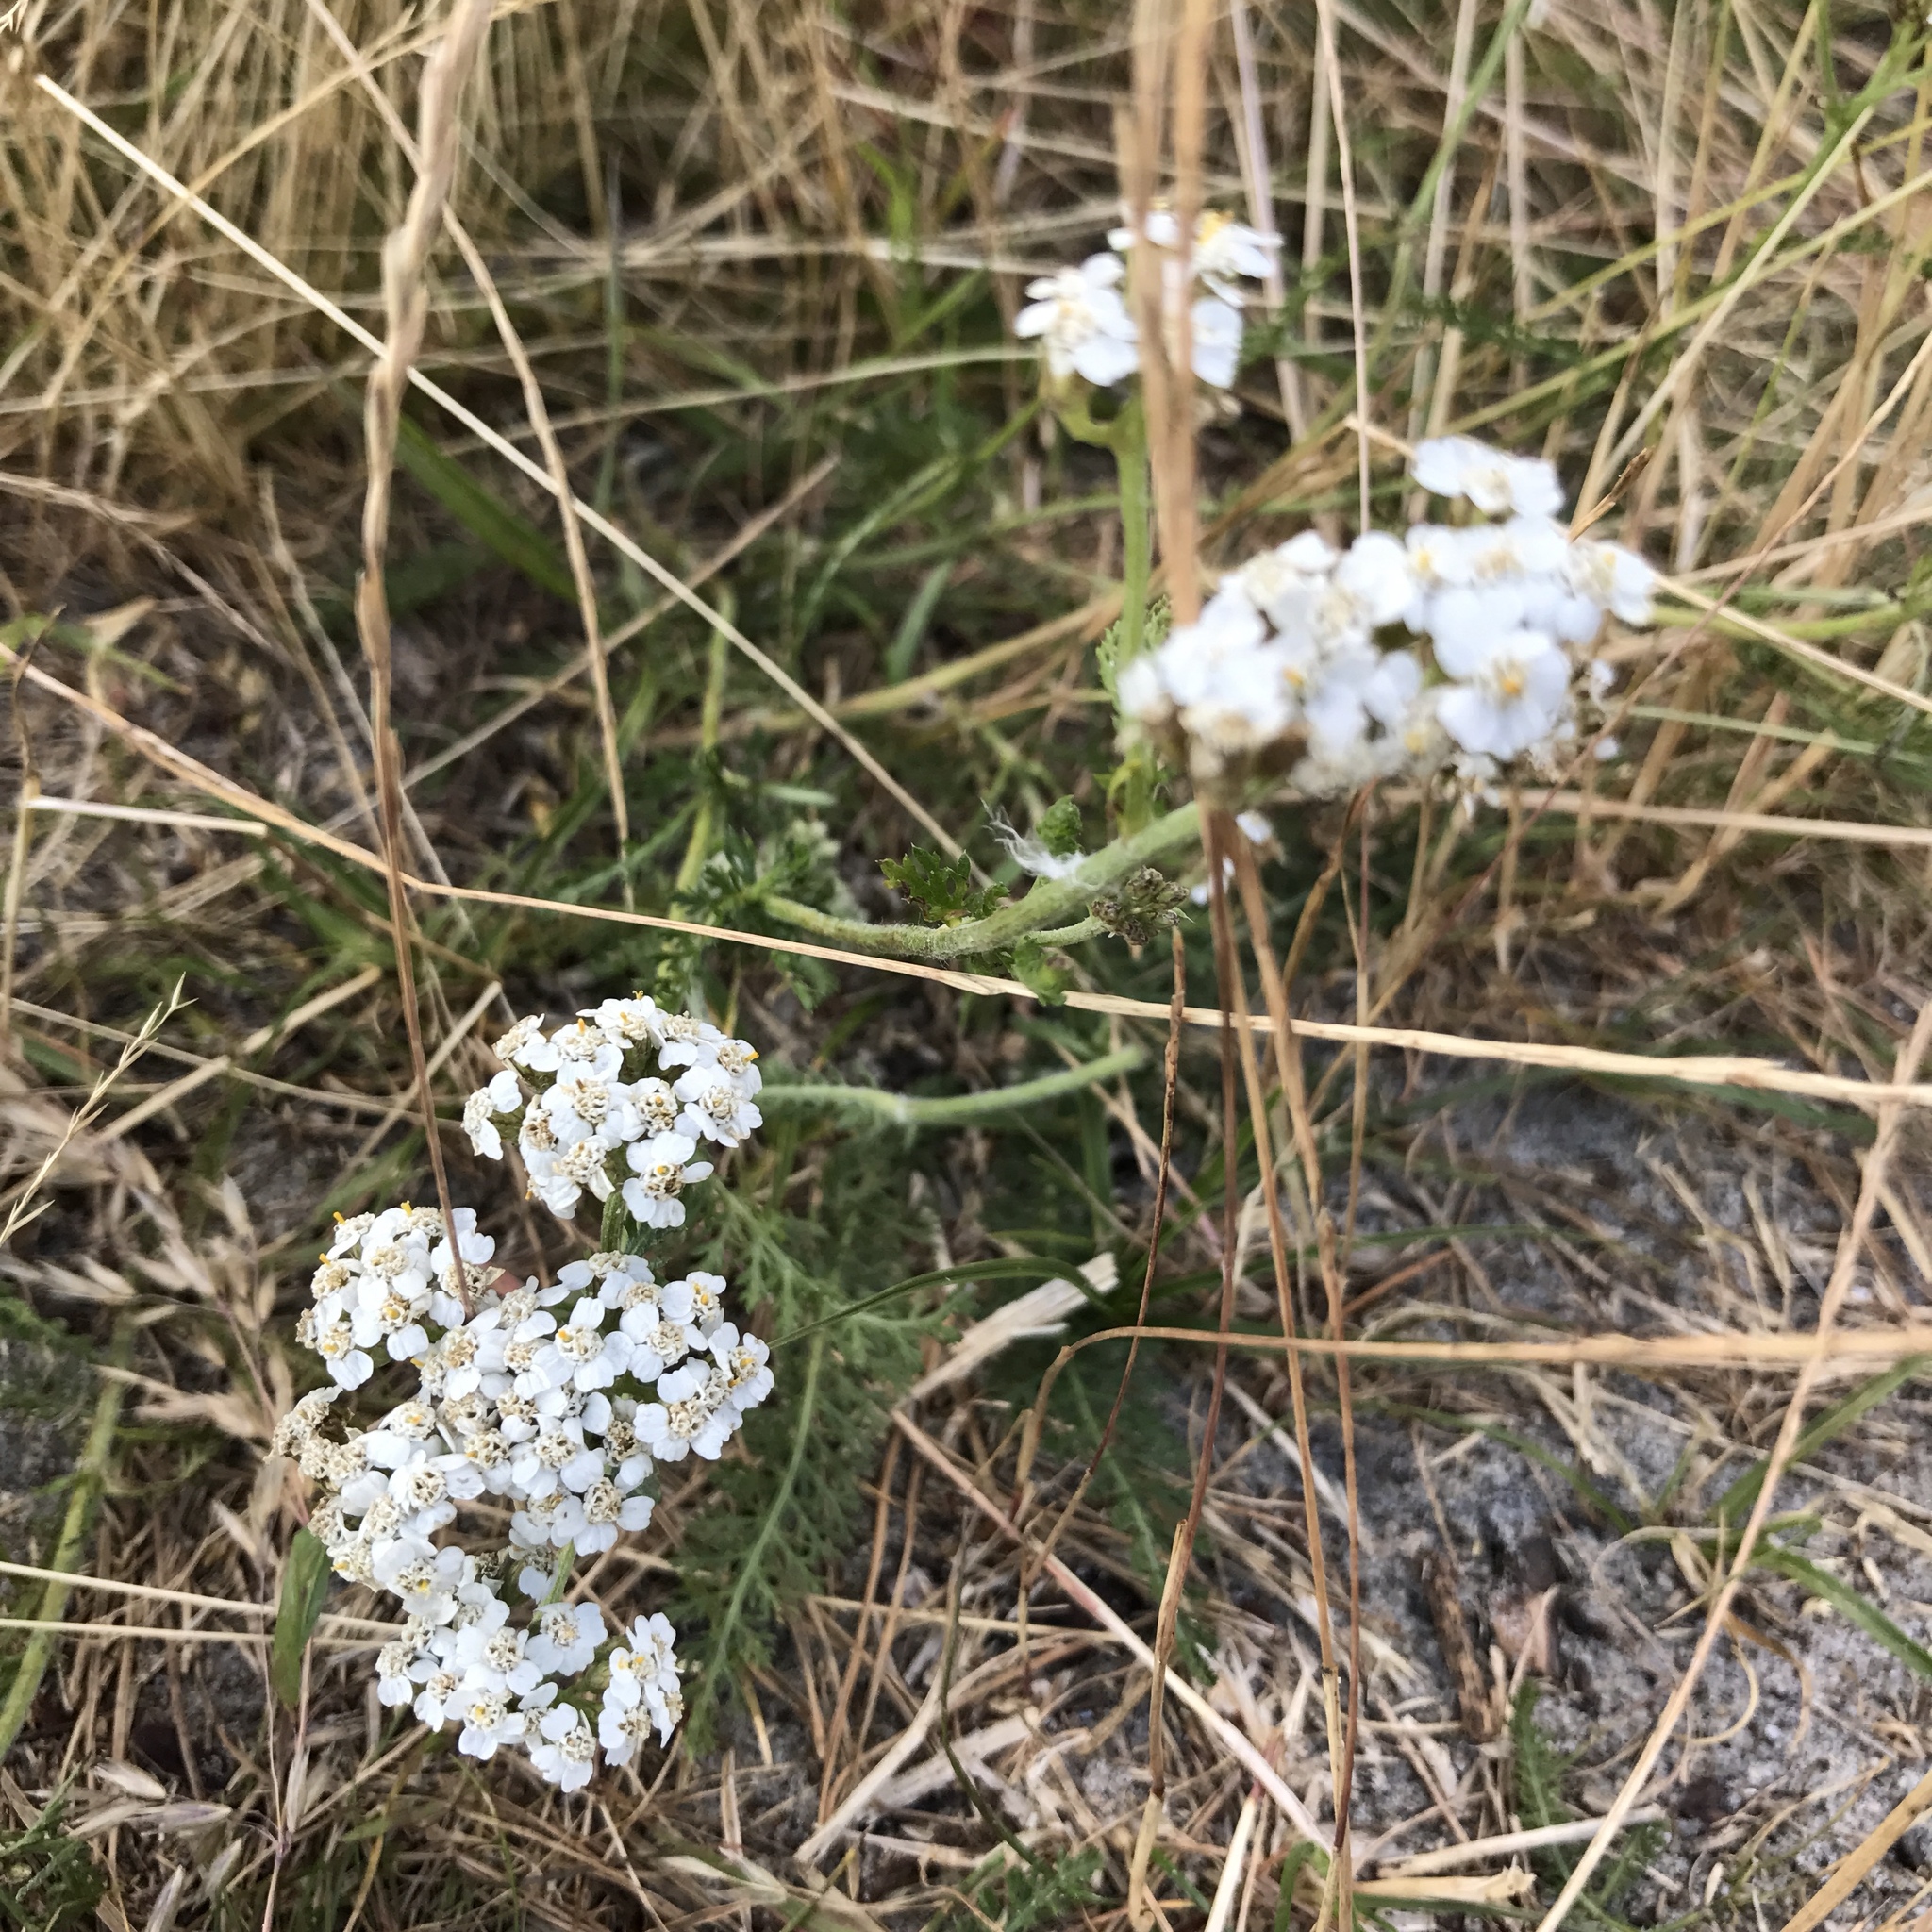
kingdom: Plantae
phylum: Tracheophyta
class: Magnoliopsida
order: Asterales
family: Asteraceae
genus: Achillea
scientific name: Achillea millefolium
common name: Yarrow
